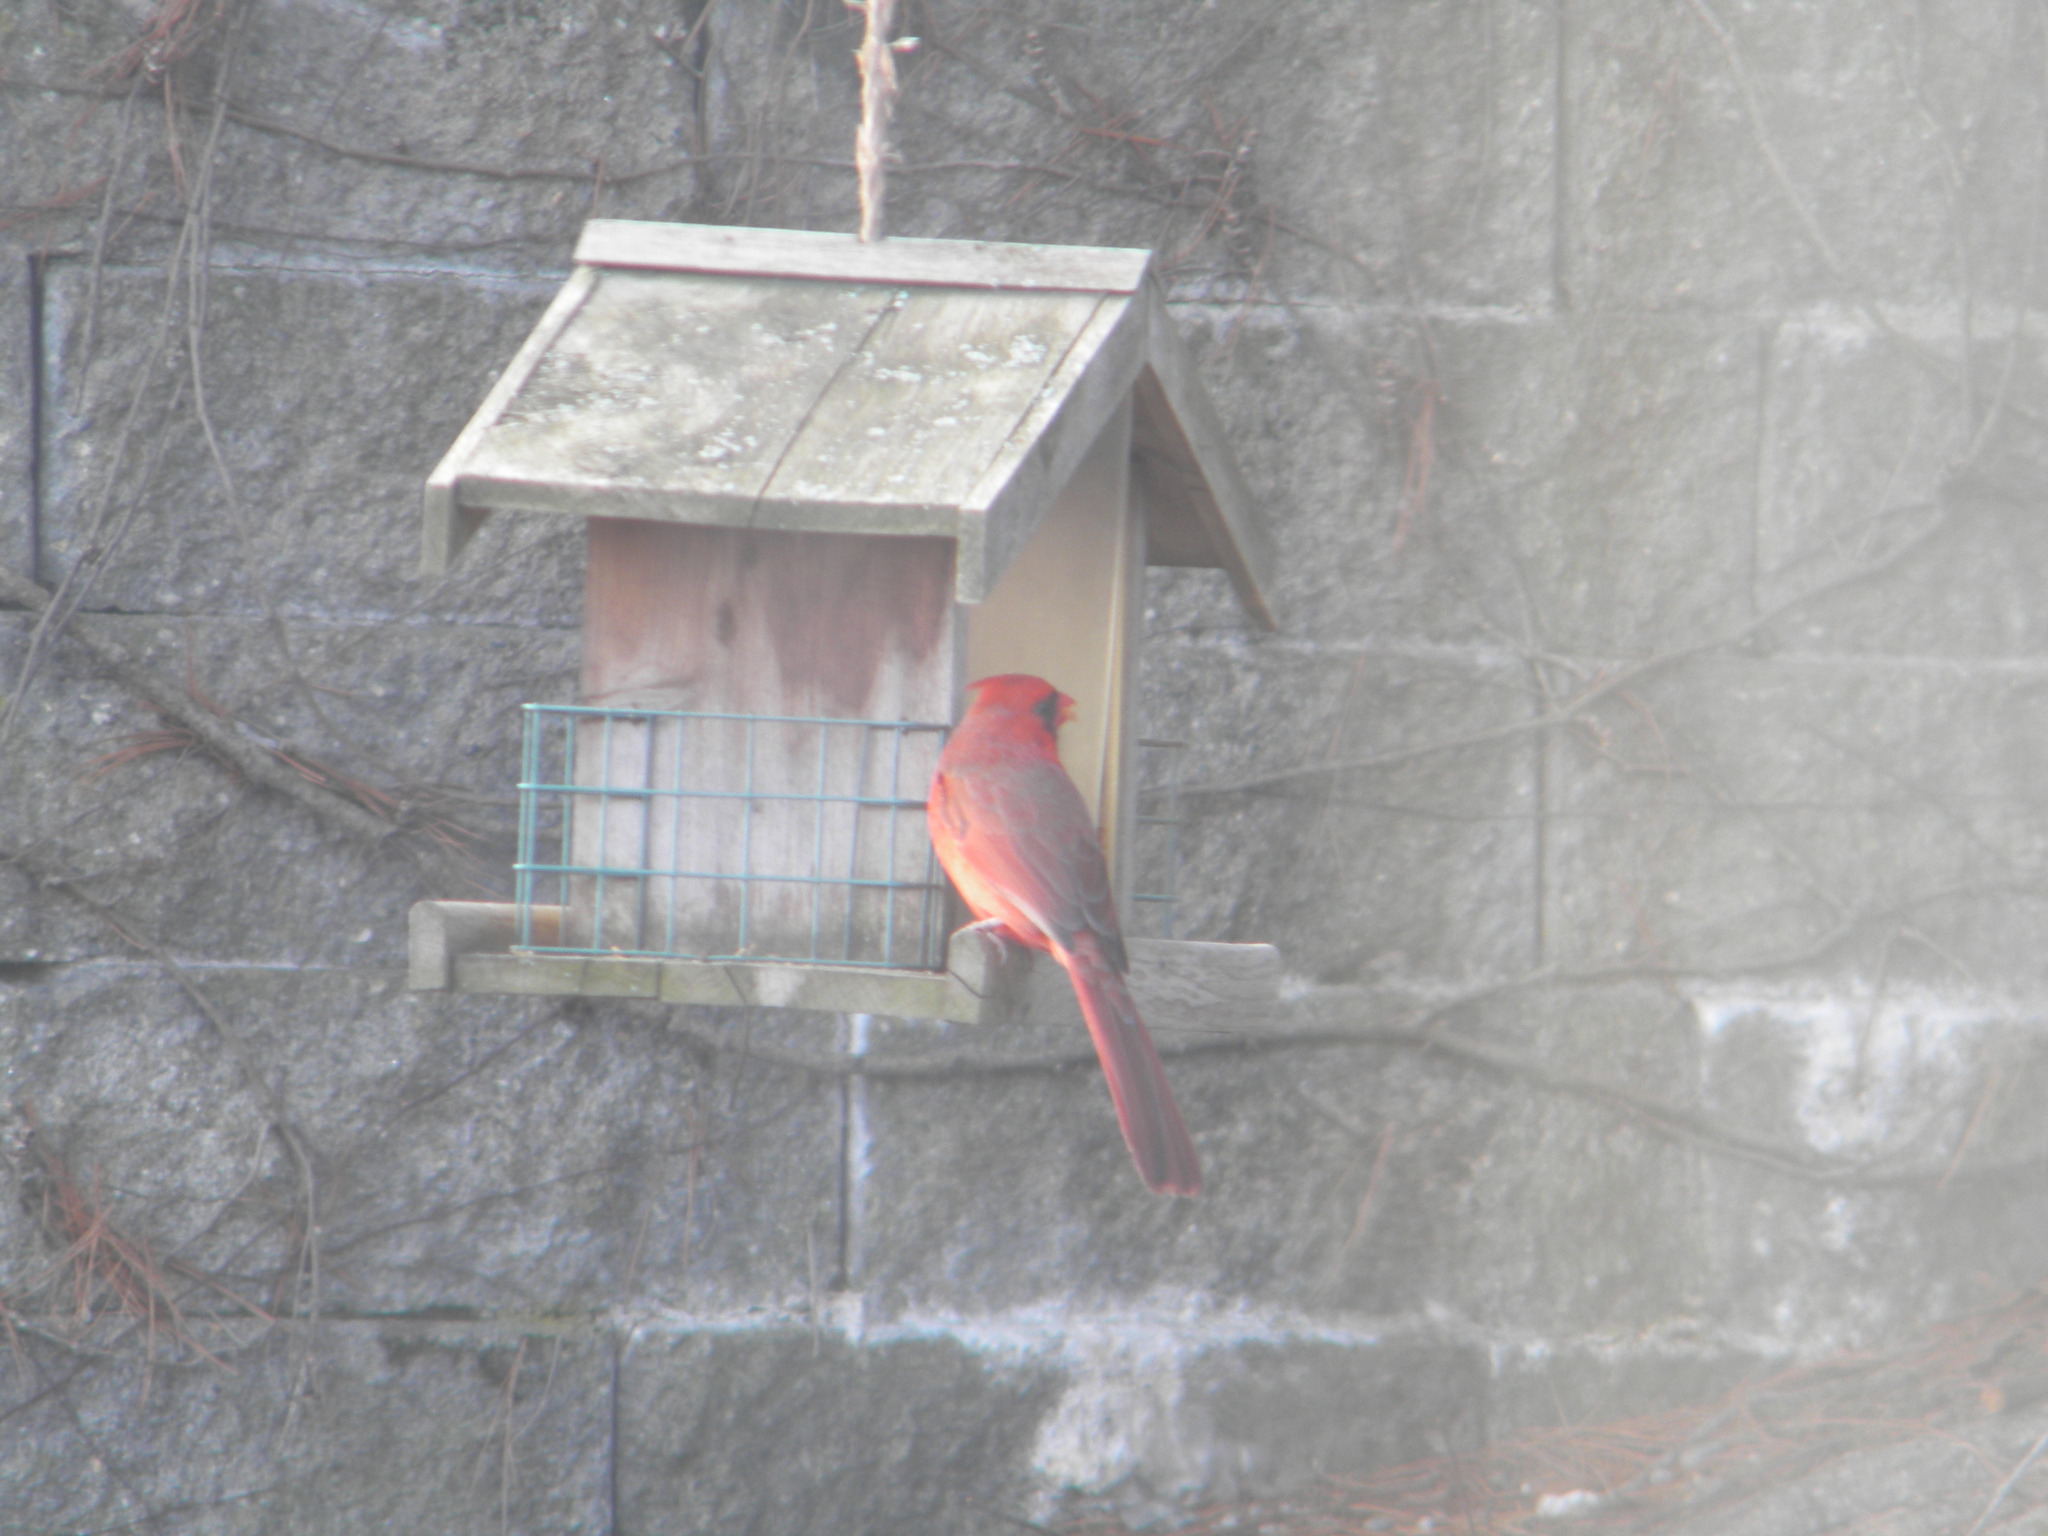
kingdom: Animalia
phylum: Chordata
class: Aves
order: Passeriformes
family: Cardinalidae
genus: Cardinalis
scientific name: Cardinalis cardinalis
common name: Northern cardinal
